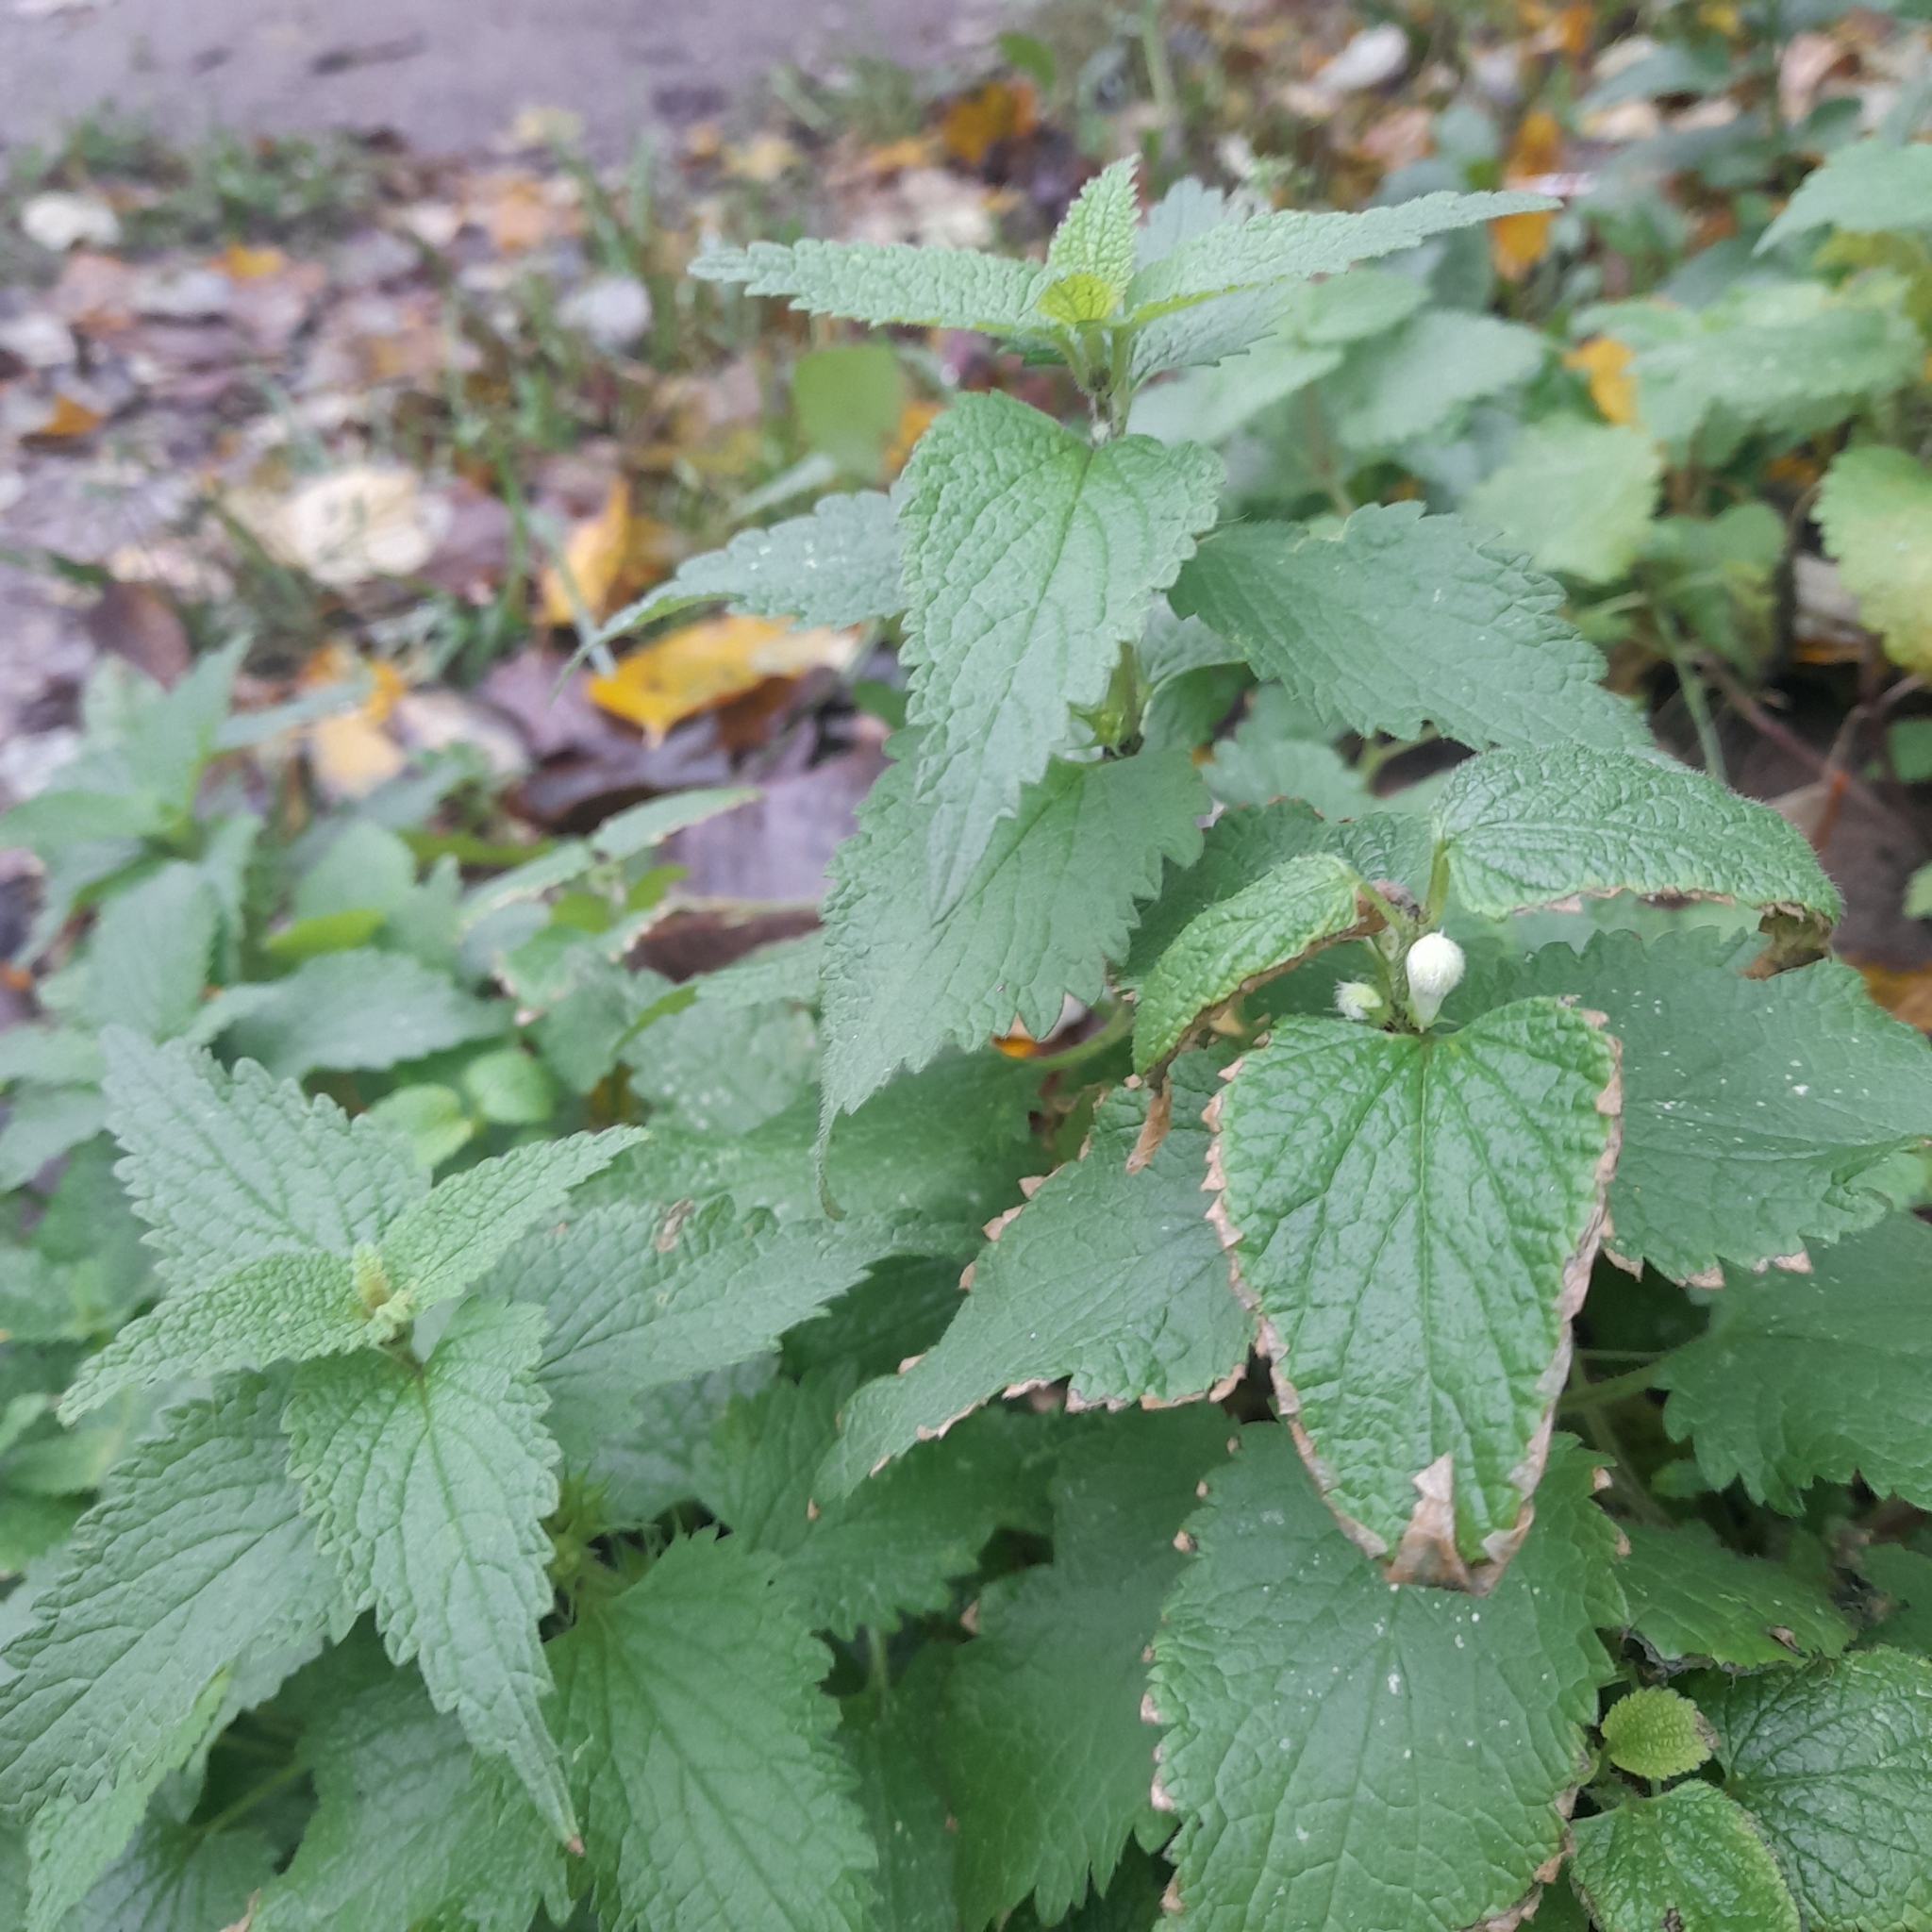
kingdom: Plantae
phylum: Tracheophyta
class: Magnoliopsida
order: Lamiales
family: Lamiaceae
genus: Lamium
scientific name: Lamium album
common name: White dead-nettle
